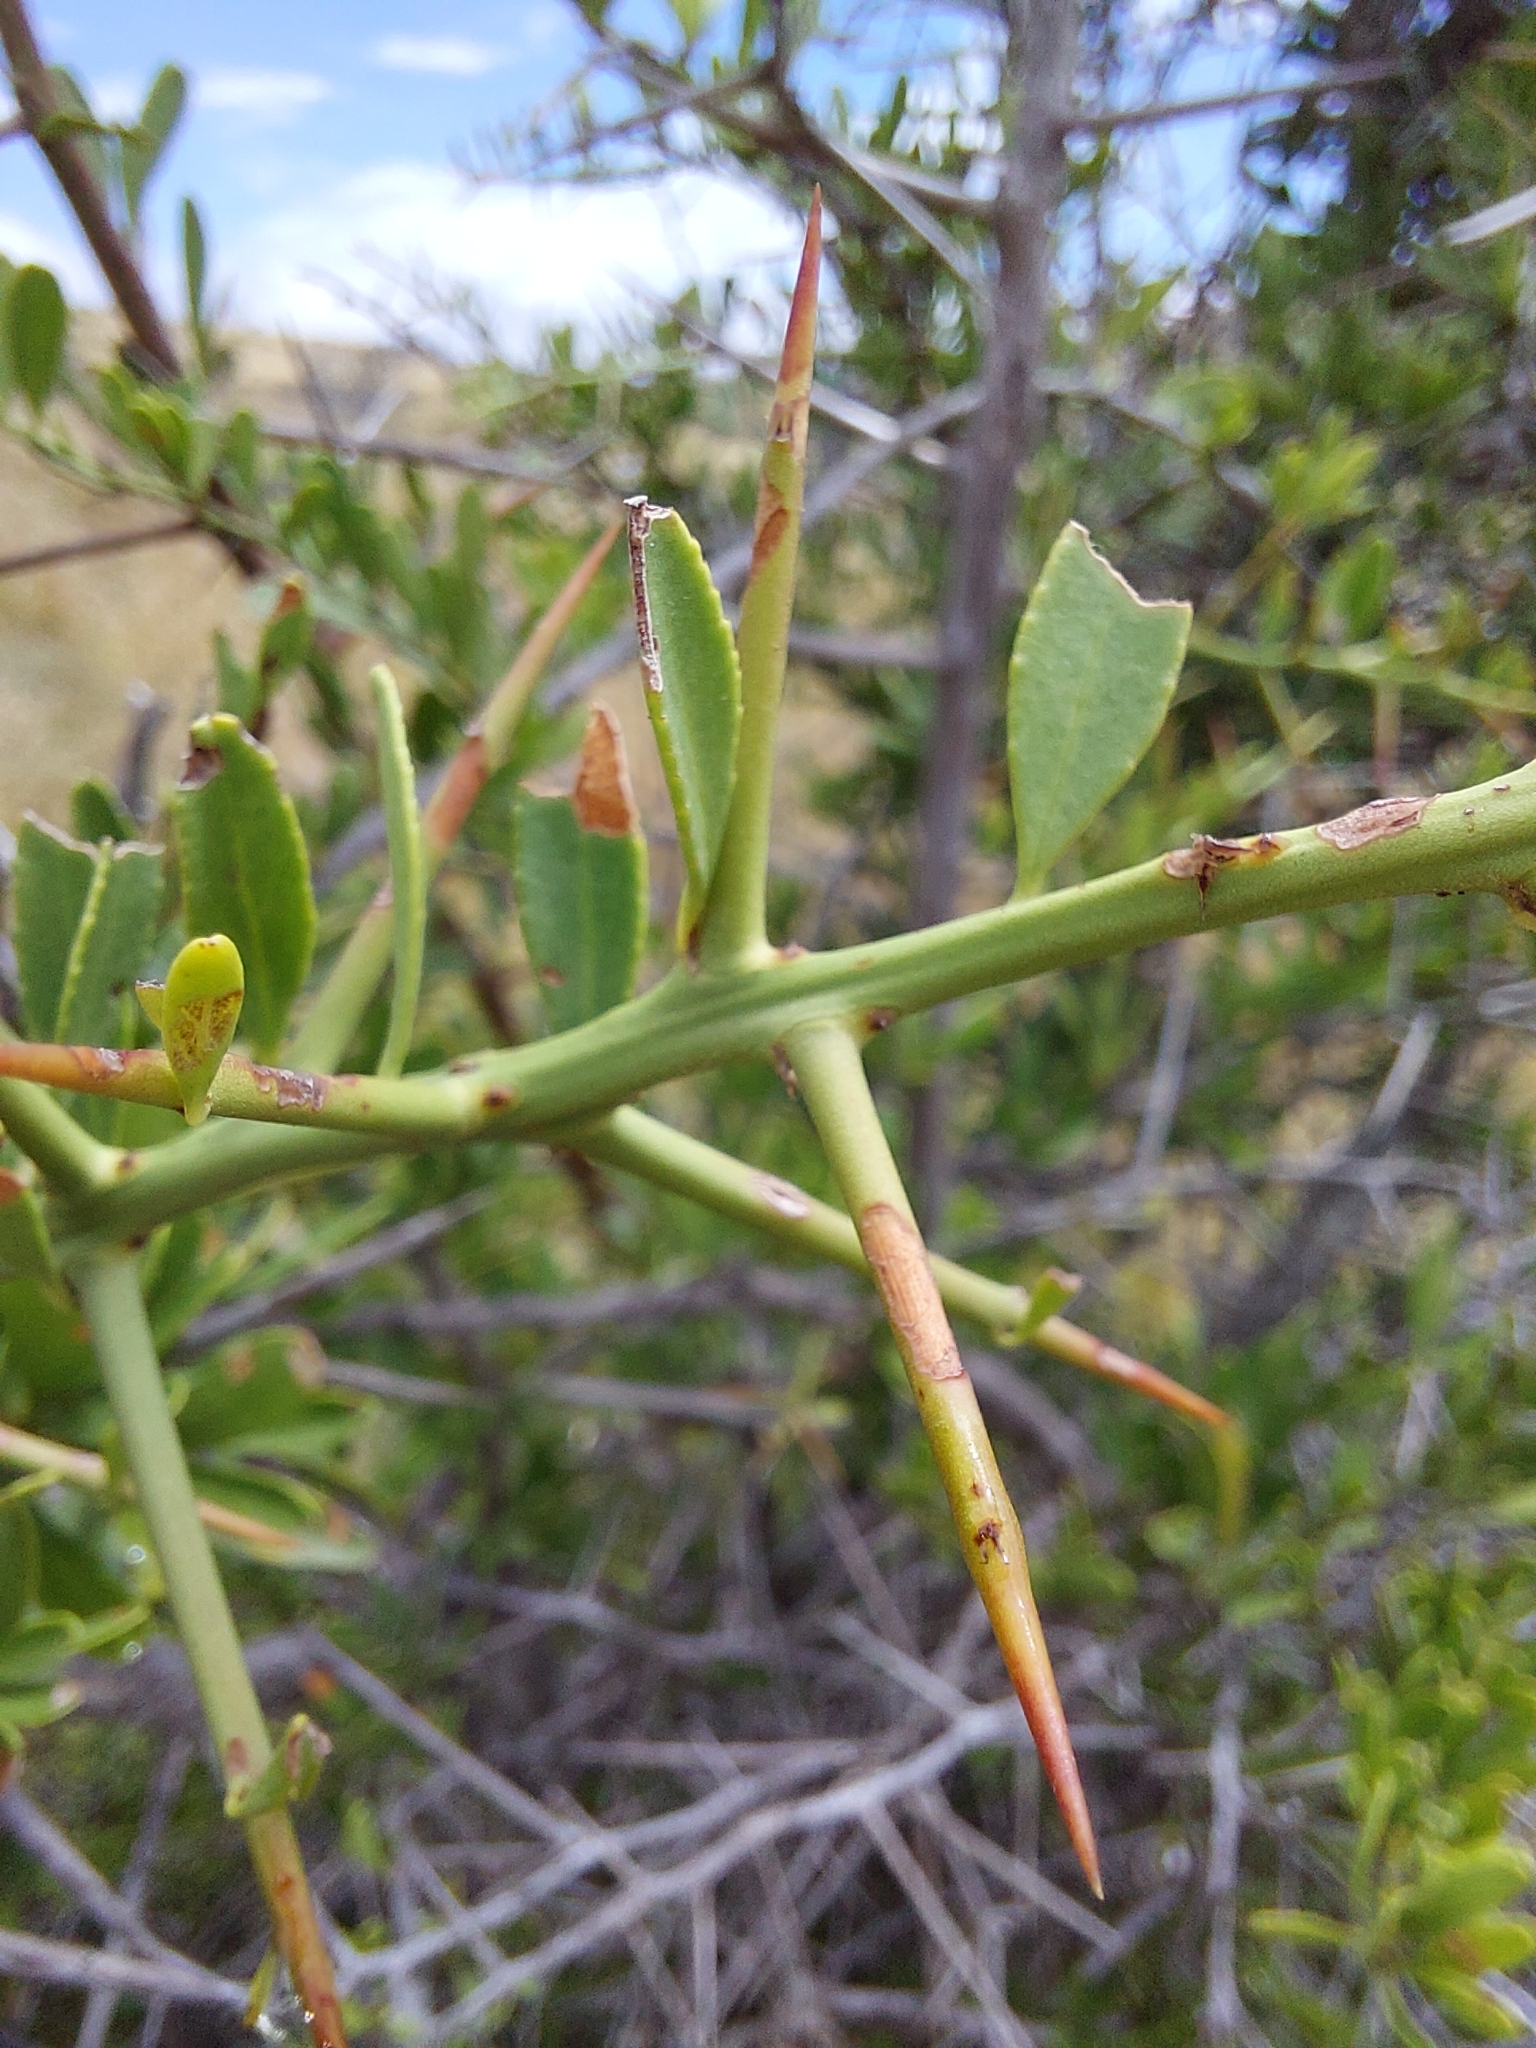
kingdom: Plantae
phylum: Tracheophyta
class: Magnoliopsida
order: Celastrales
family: Celastraceae
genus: Gymnosporia
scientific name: Gymnosporia buxifolia
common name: Common spike-thorn
